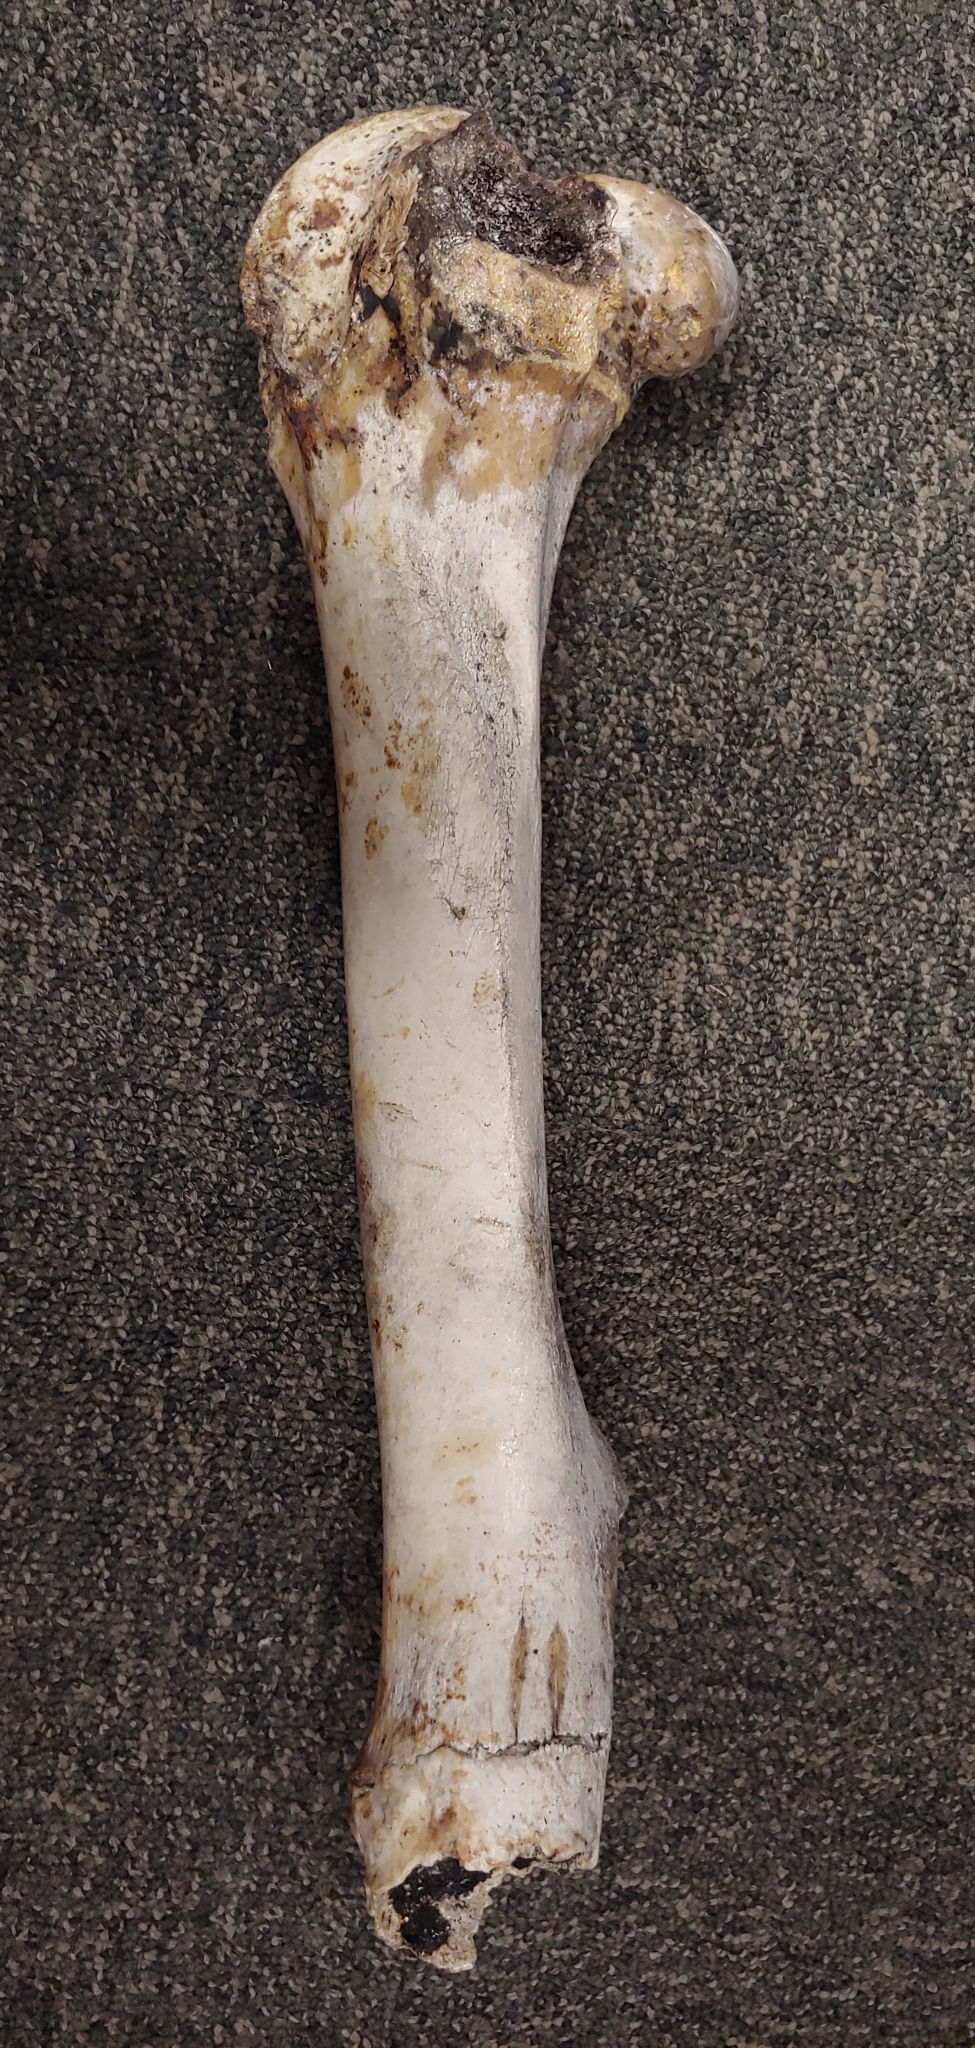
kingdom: Animalia
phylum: Chordata
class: Mammalia
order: Artiodactyla
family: Cervidae
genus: Odocoileus
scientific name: Odocoileus hemionus
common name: Mule deer
